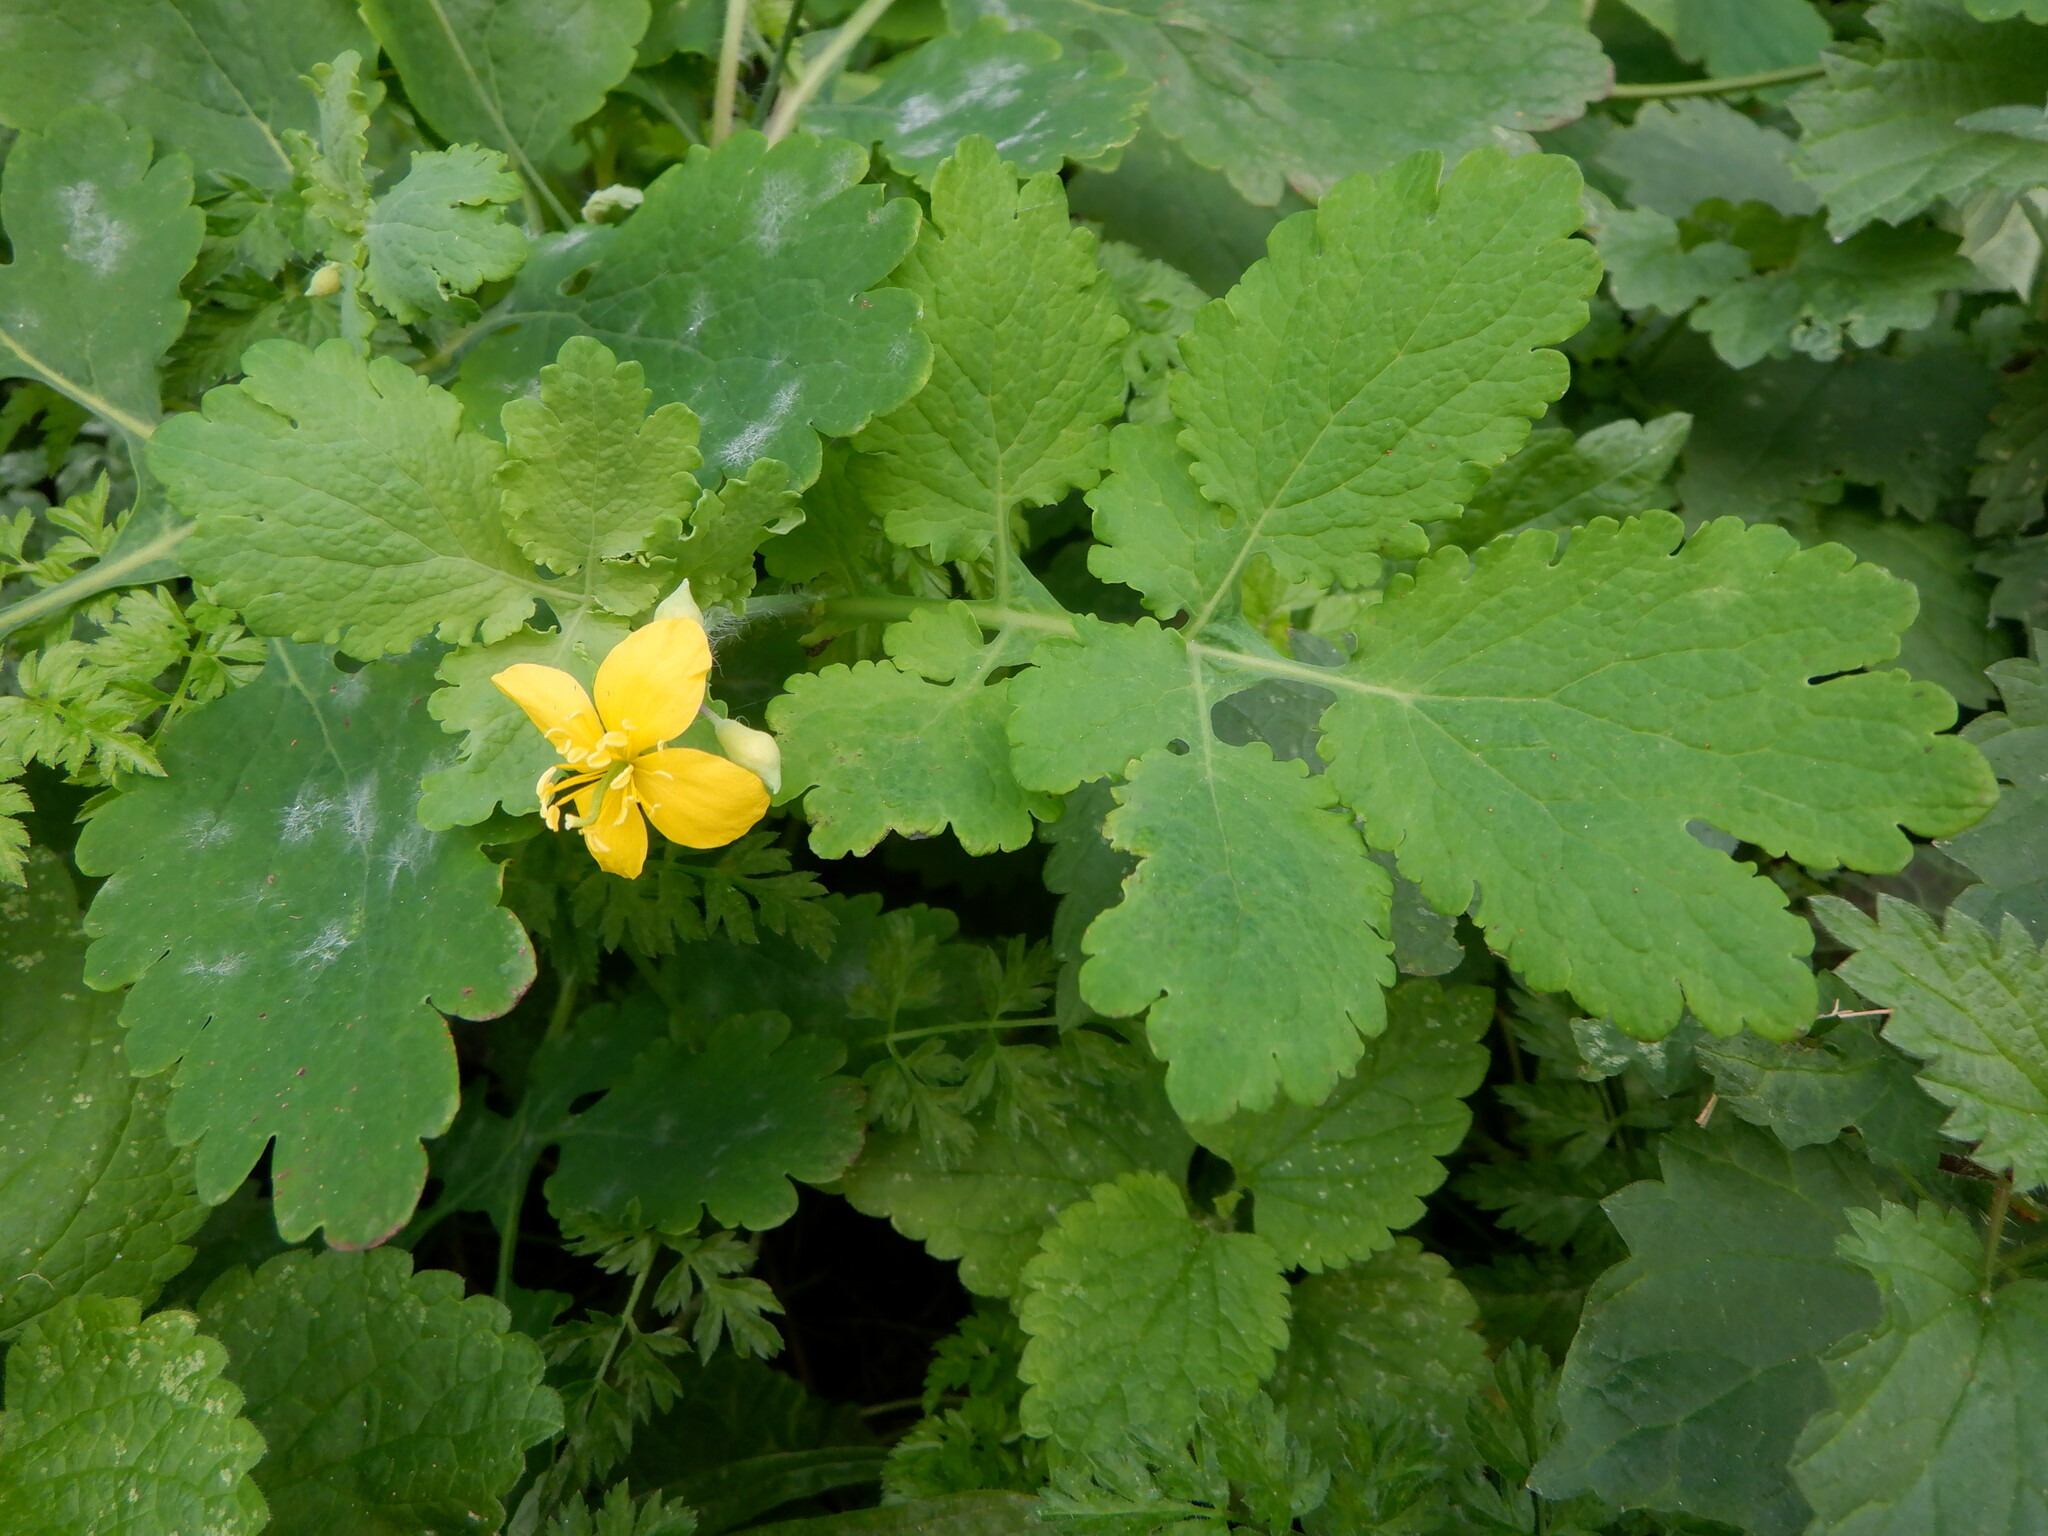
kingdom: Plantae
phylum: Tracheophyta
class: Magnoliopsida
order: Ranunculales
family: Papaveraceae
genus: Chelidonium
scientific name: Chelidonium majus
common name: Greater celandine
